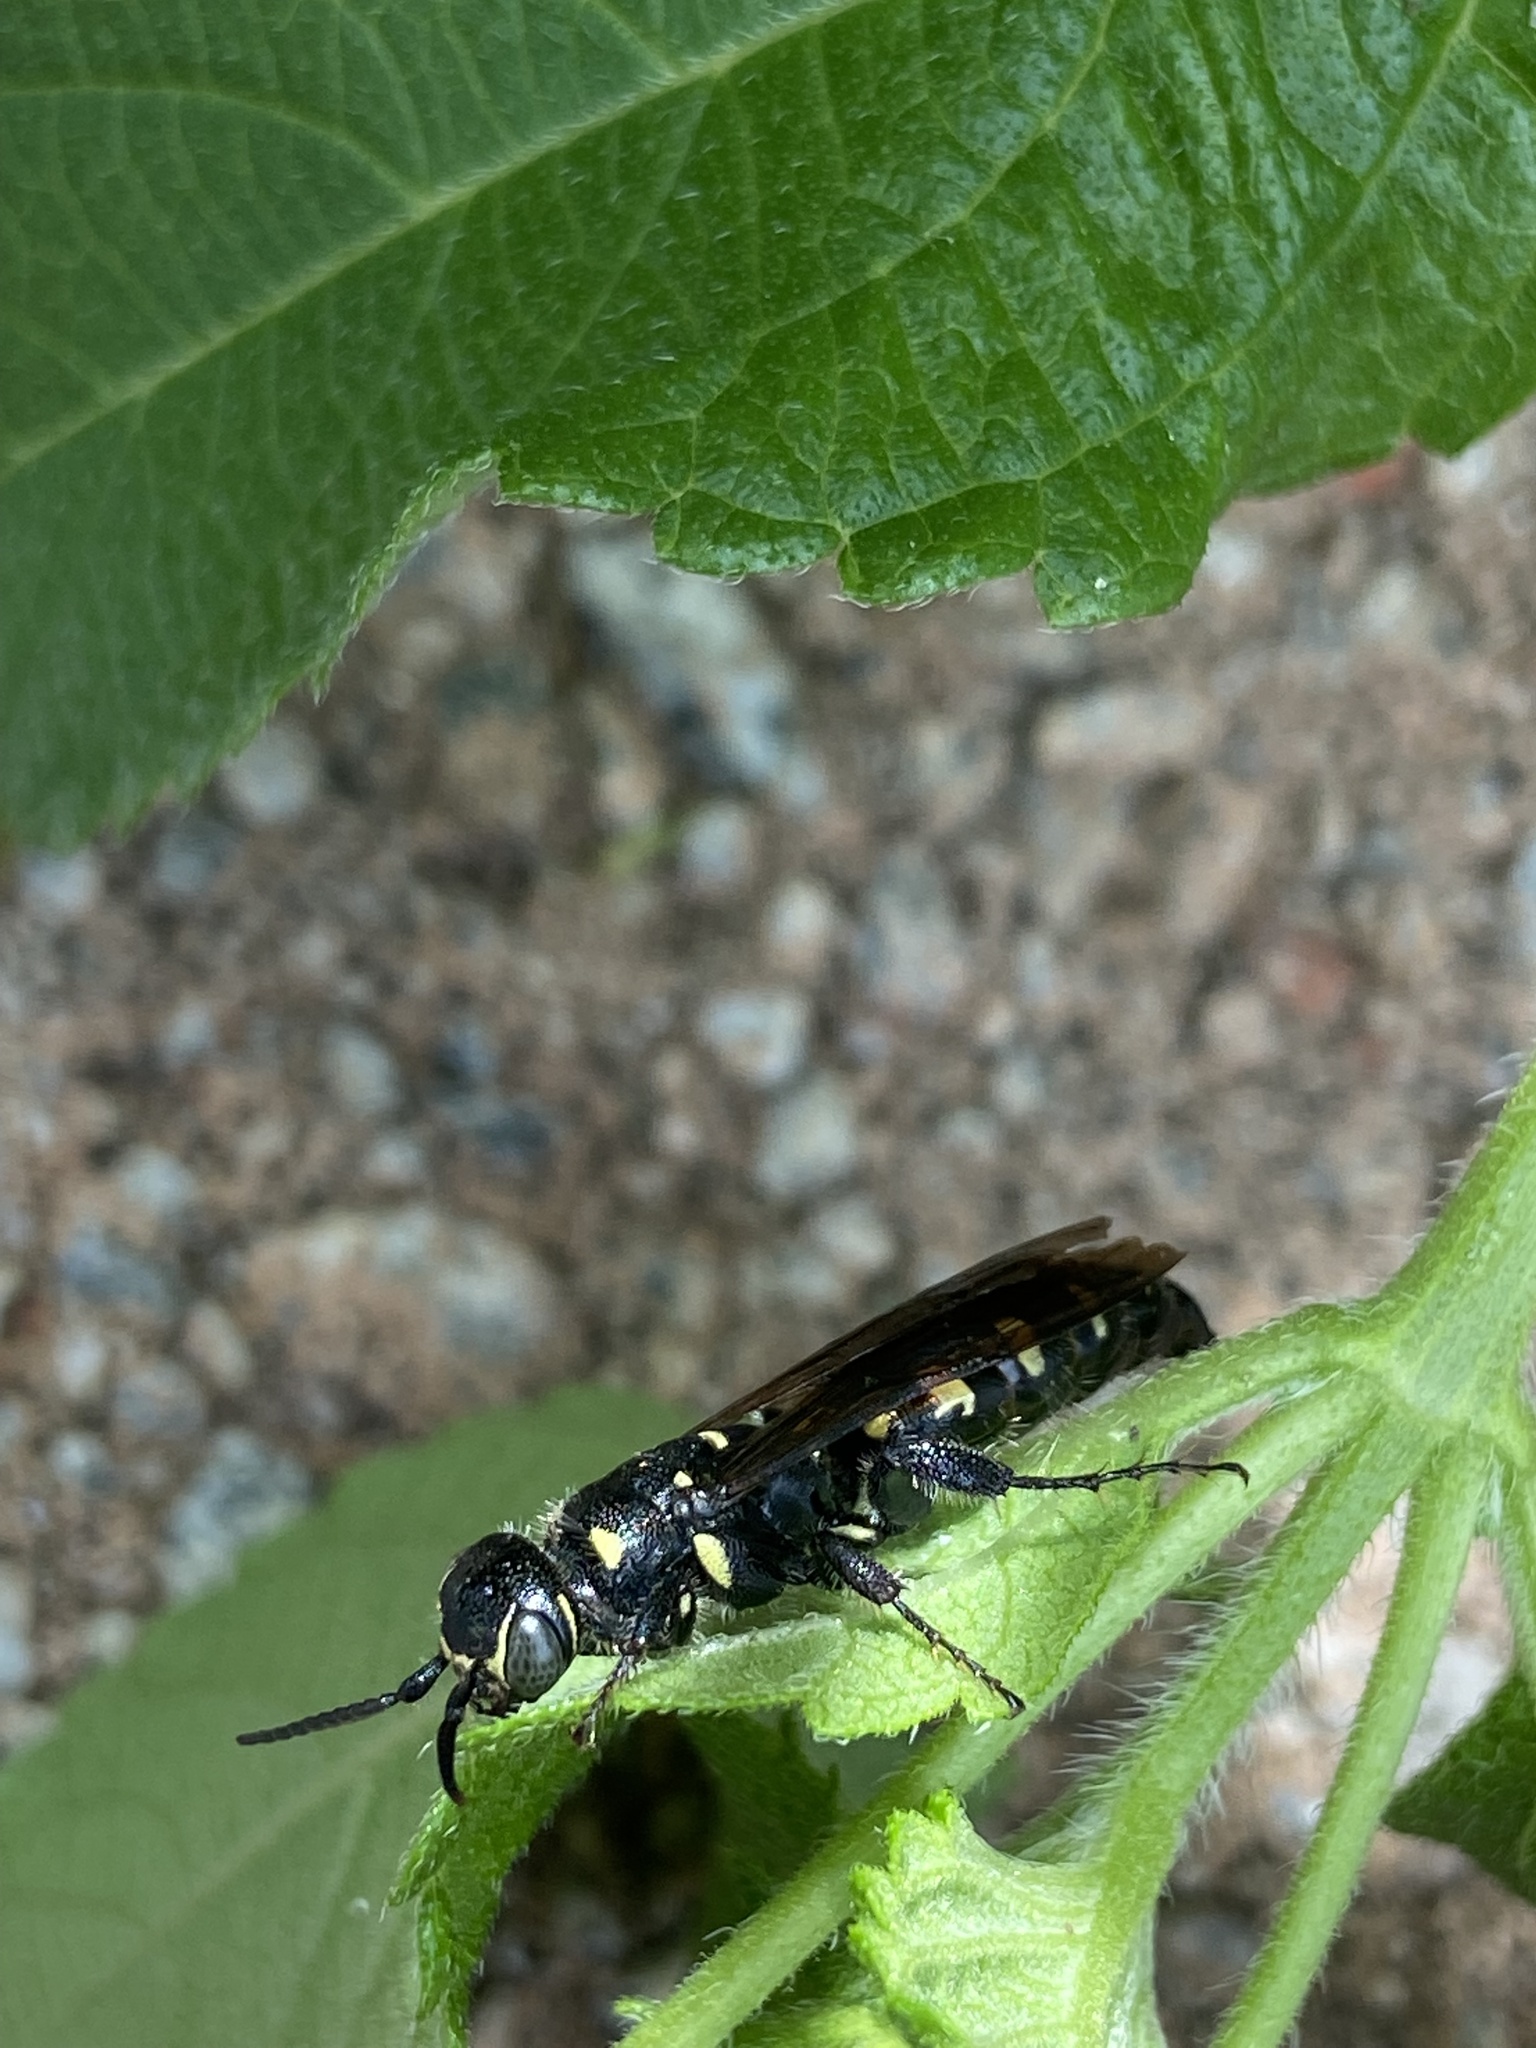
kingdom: Animalia
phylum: Arthropoda
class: Insecta
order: Hymenoptera
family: Tiphiidae
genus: Myzinum
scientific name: Myzinum obscurum
